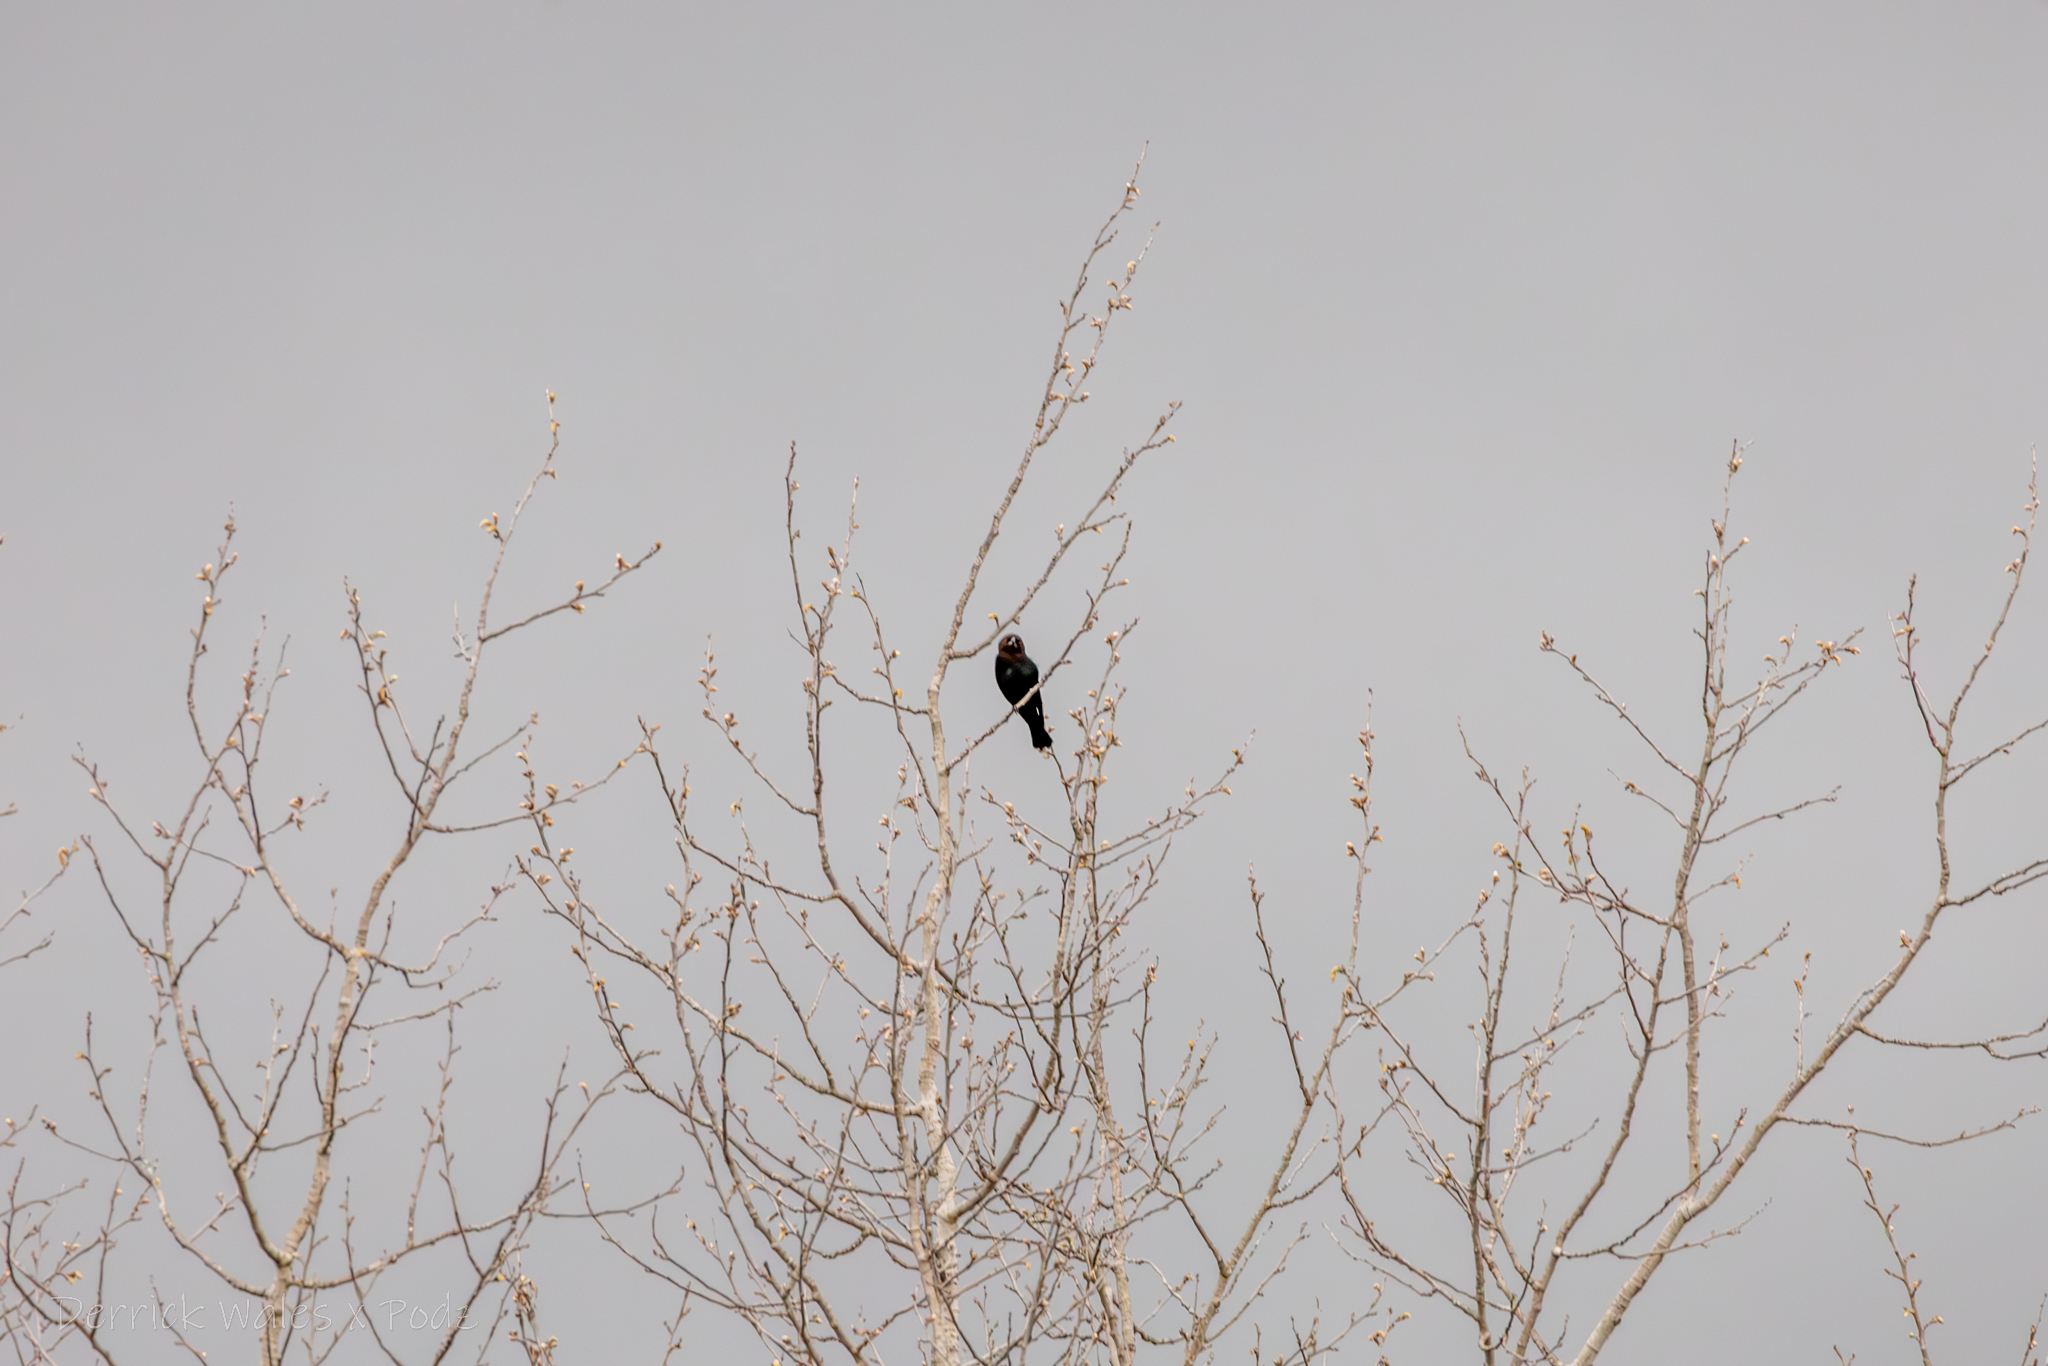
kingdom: Animalia
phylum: Chordata
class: Aves
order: Passeriformes
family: Icteridae
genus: Molothrus
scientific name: Molothrus ater
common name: Brown-headed cowbird
